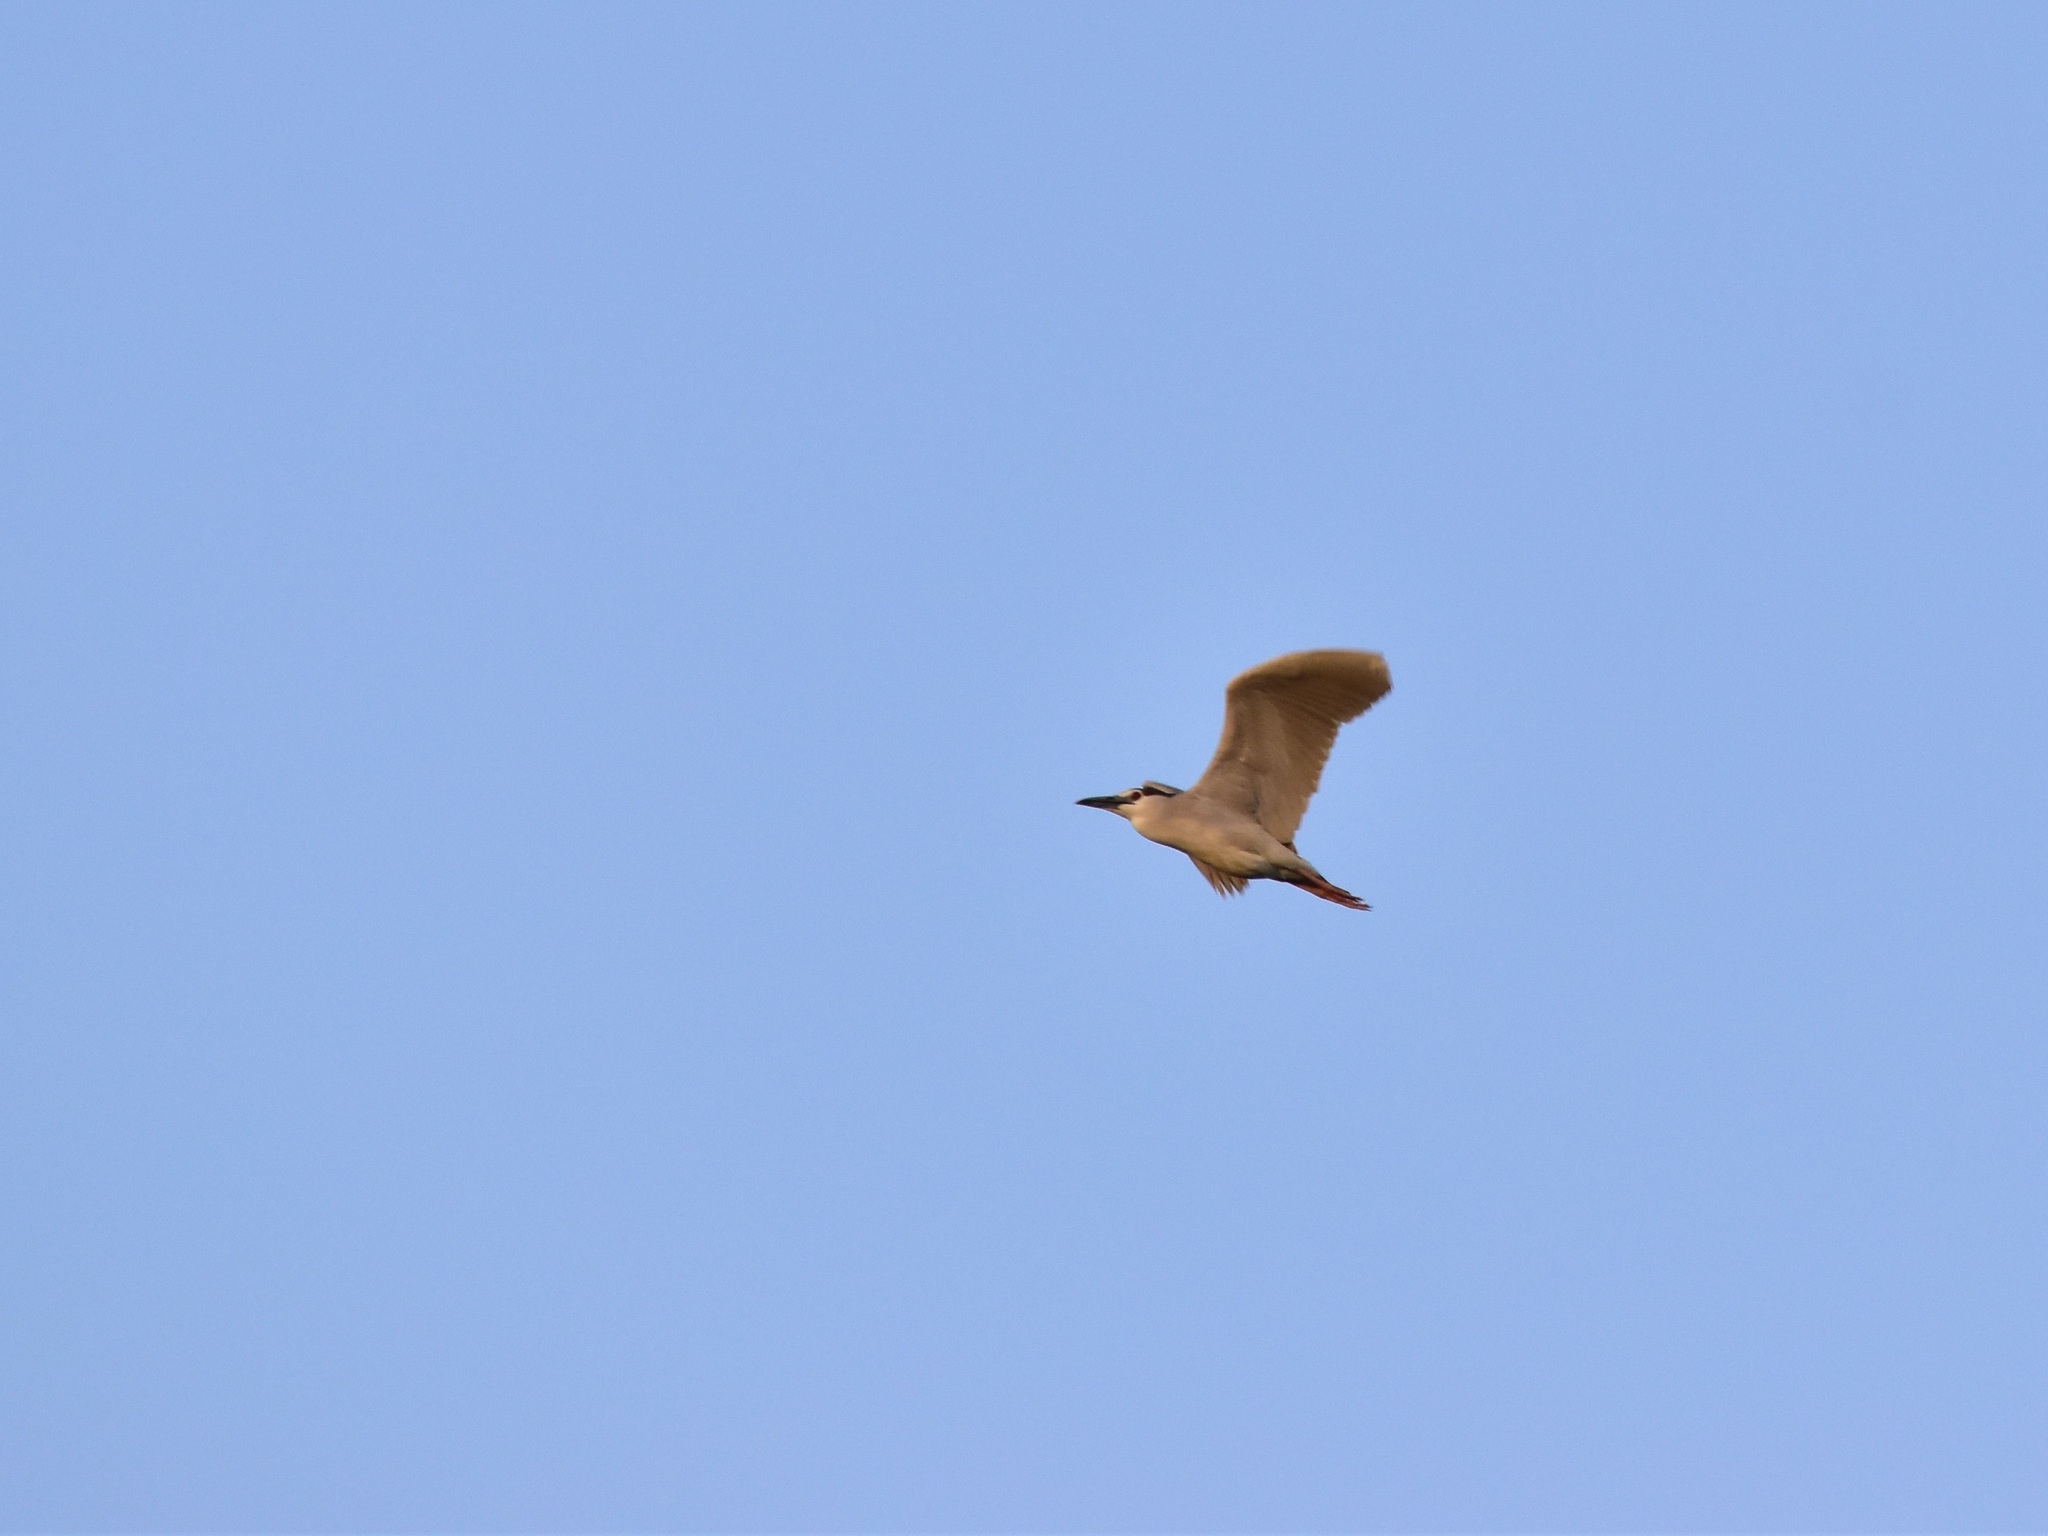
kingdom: Animalia
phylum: Chordata
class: Aves
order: Pelecaniformes
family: Ardeidae
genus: Nycticorax
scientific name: Nycticorax nycticorax
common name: Black-crowned night heron
